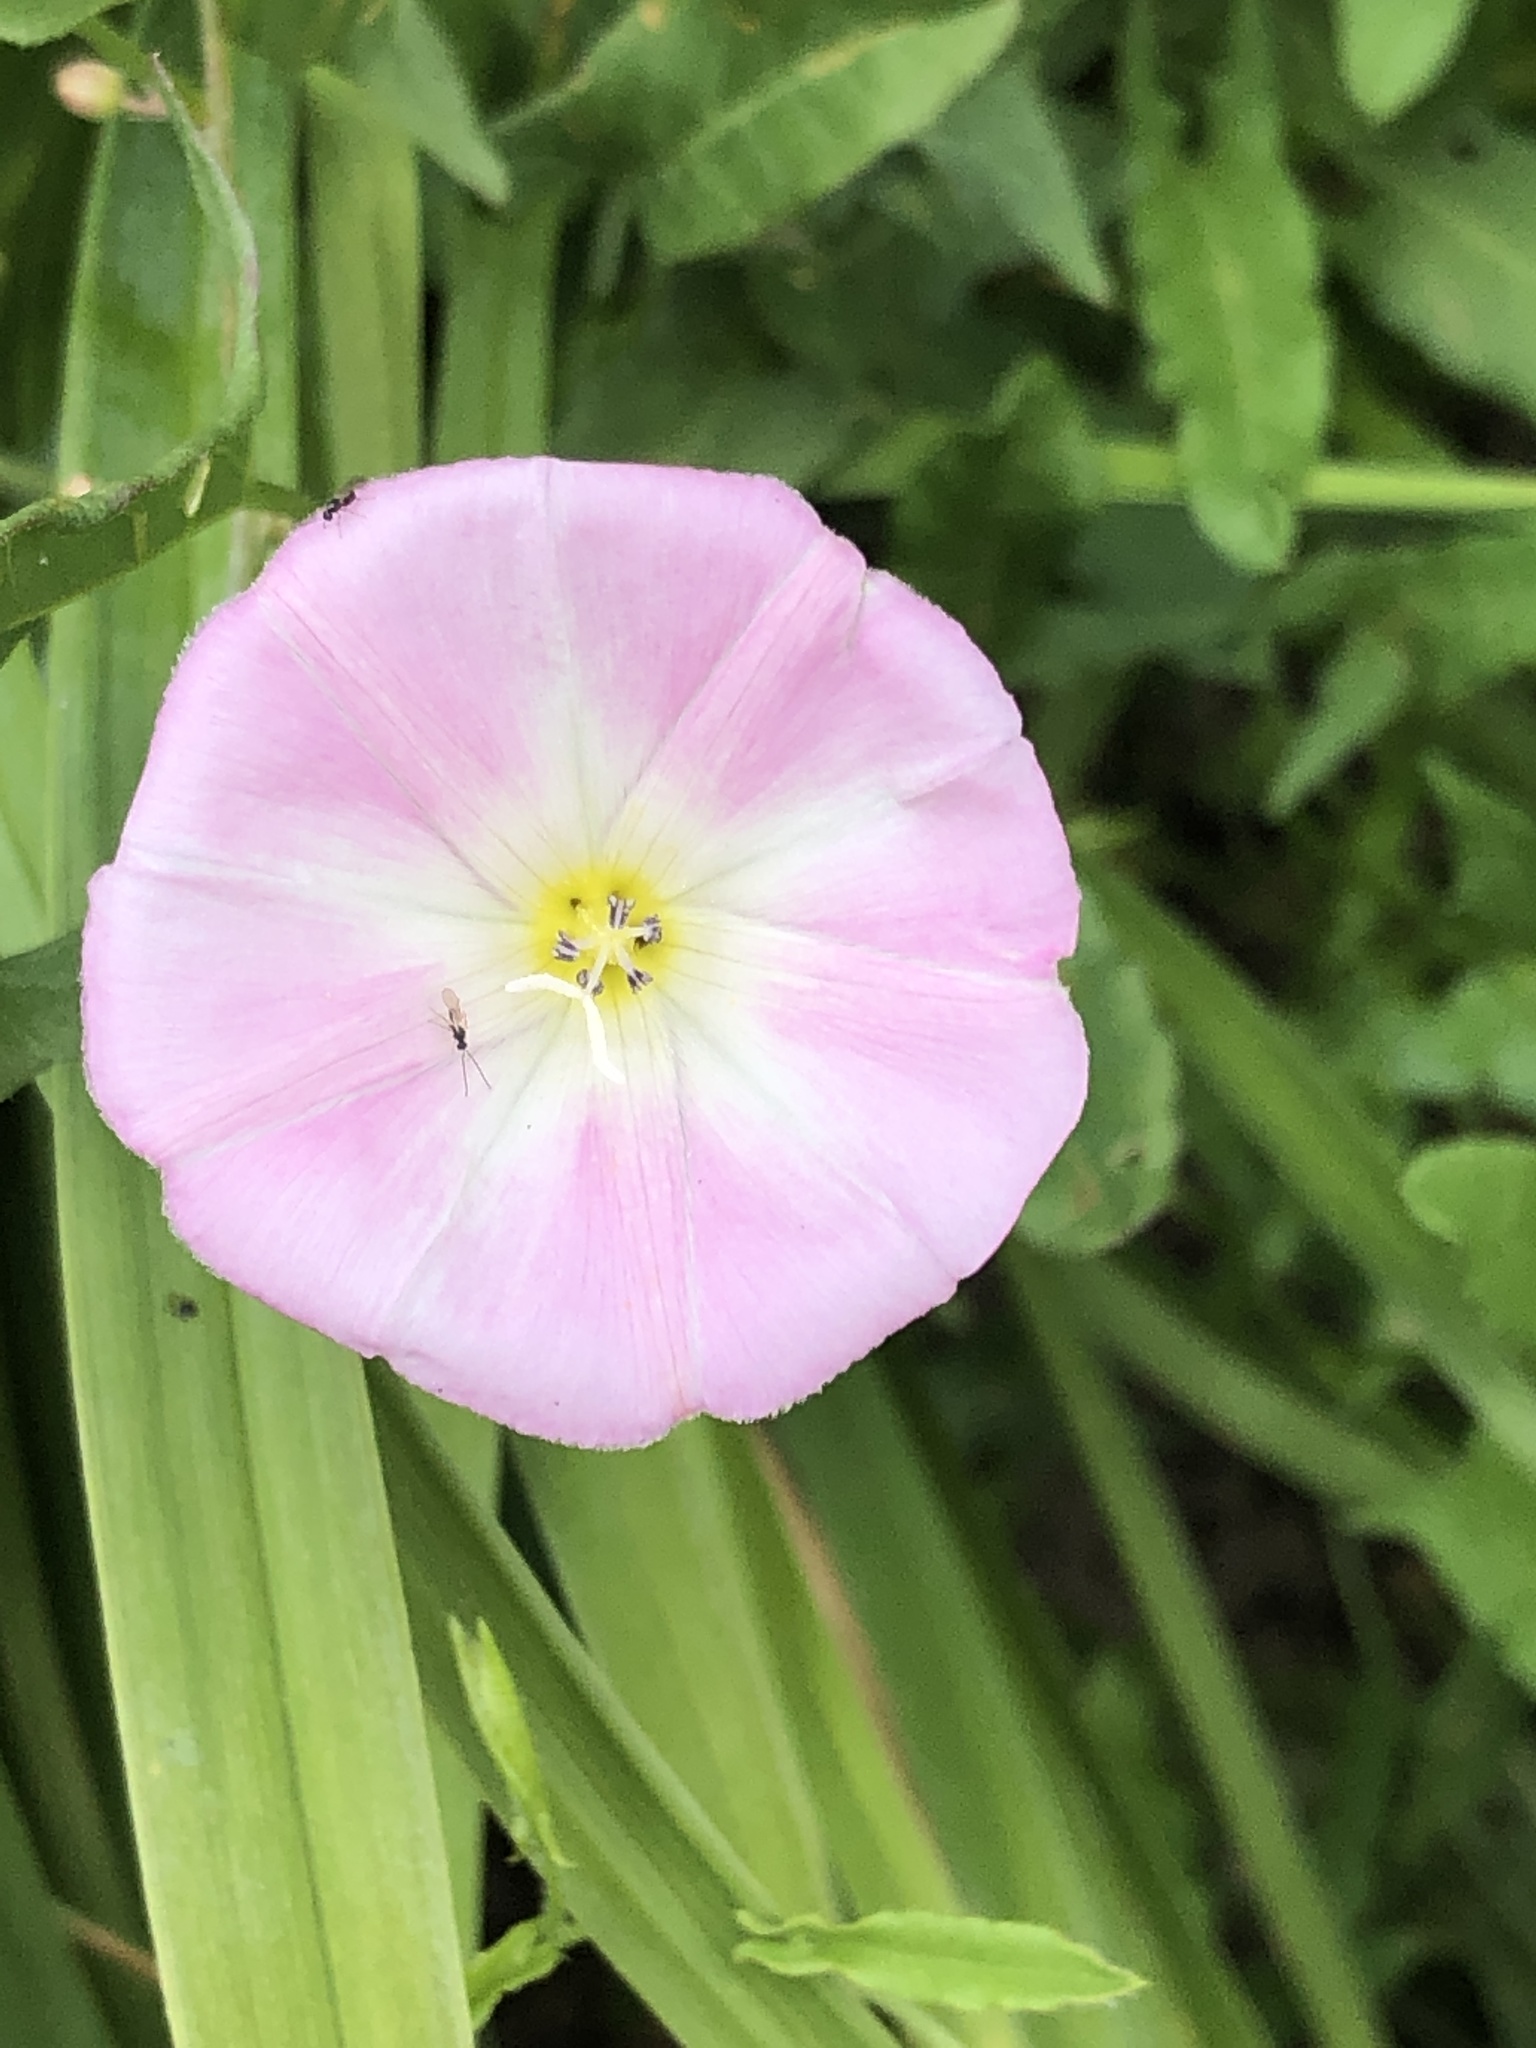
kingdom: Plantae
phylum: Tracheophyta
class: Magnoliopsida
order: Solanales
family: Convolvulaceae
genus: Convolvulus
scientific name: Convolvulus arvensis
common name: Field bindweed
